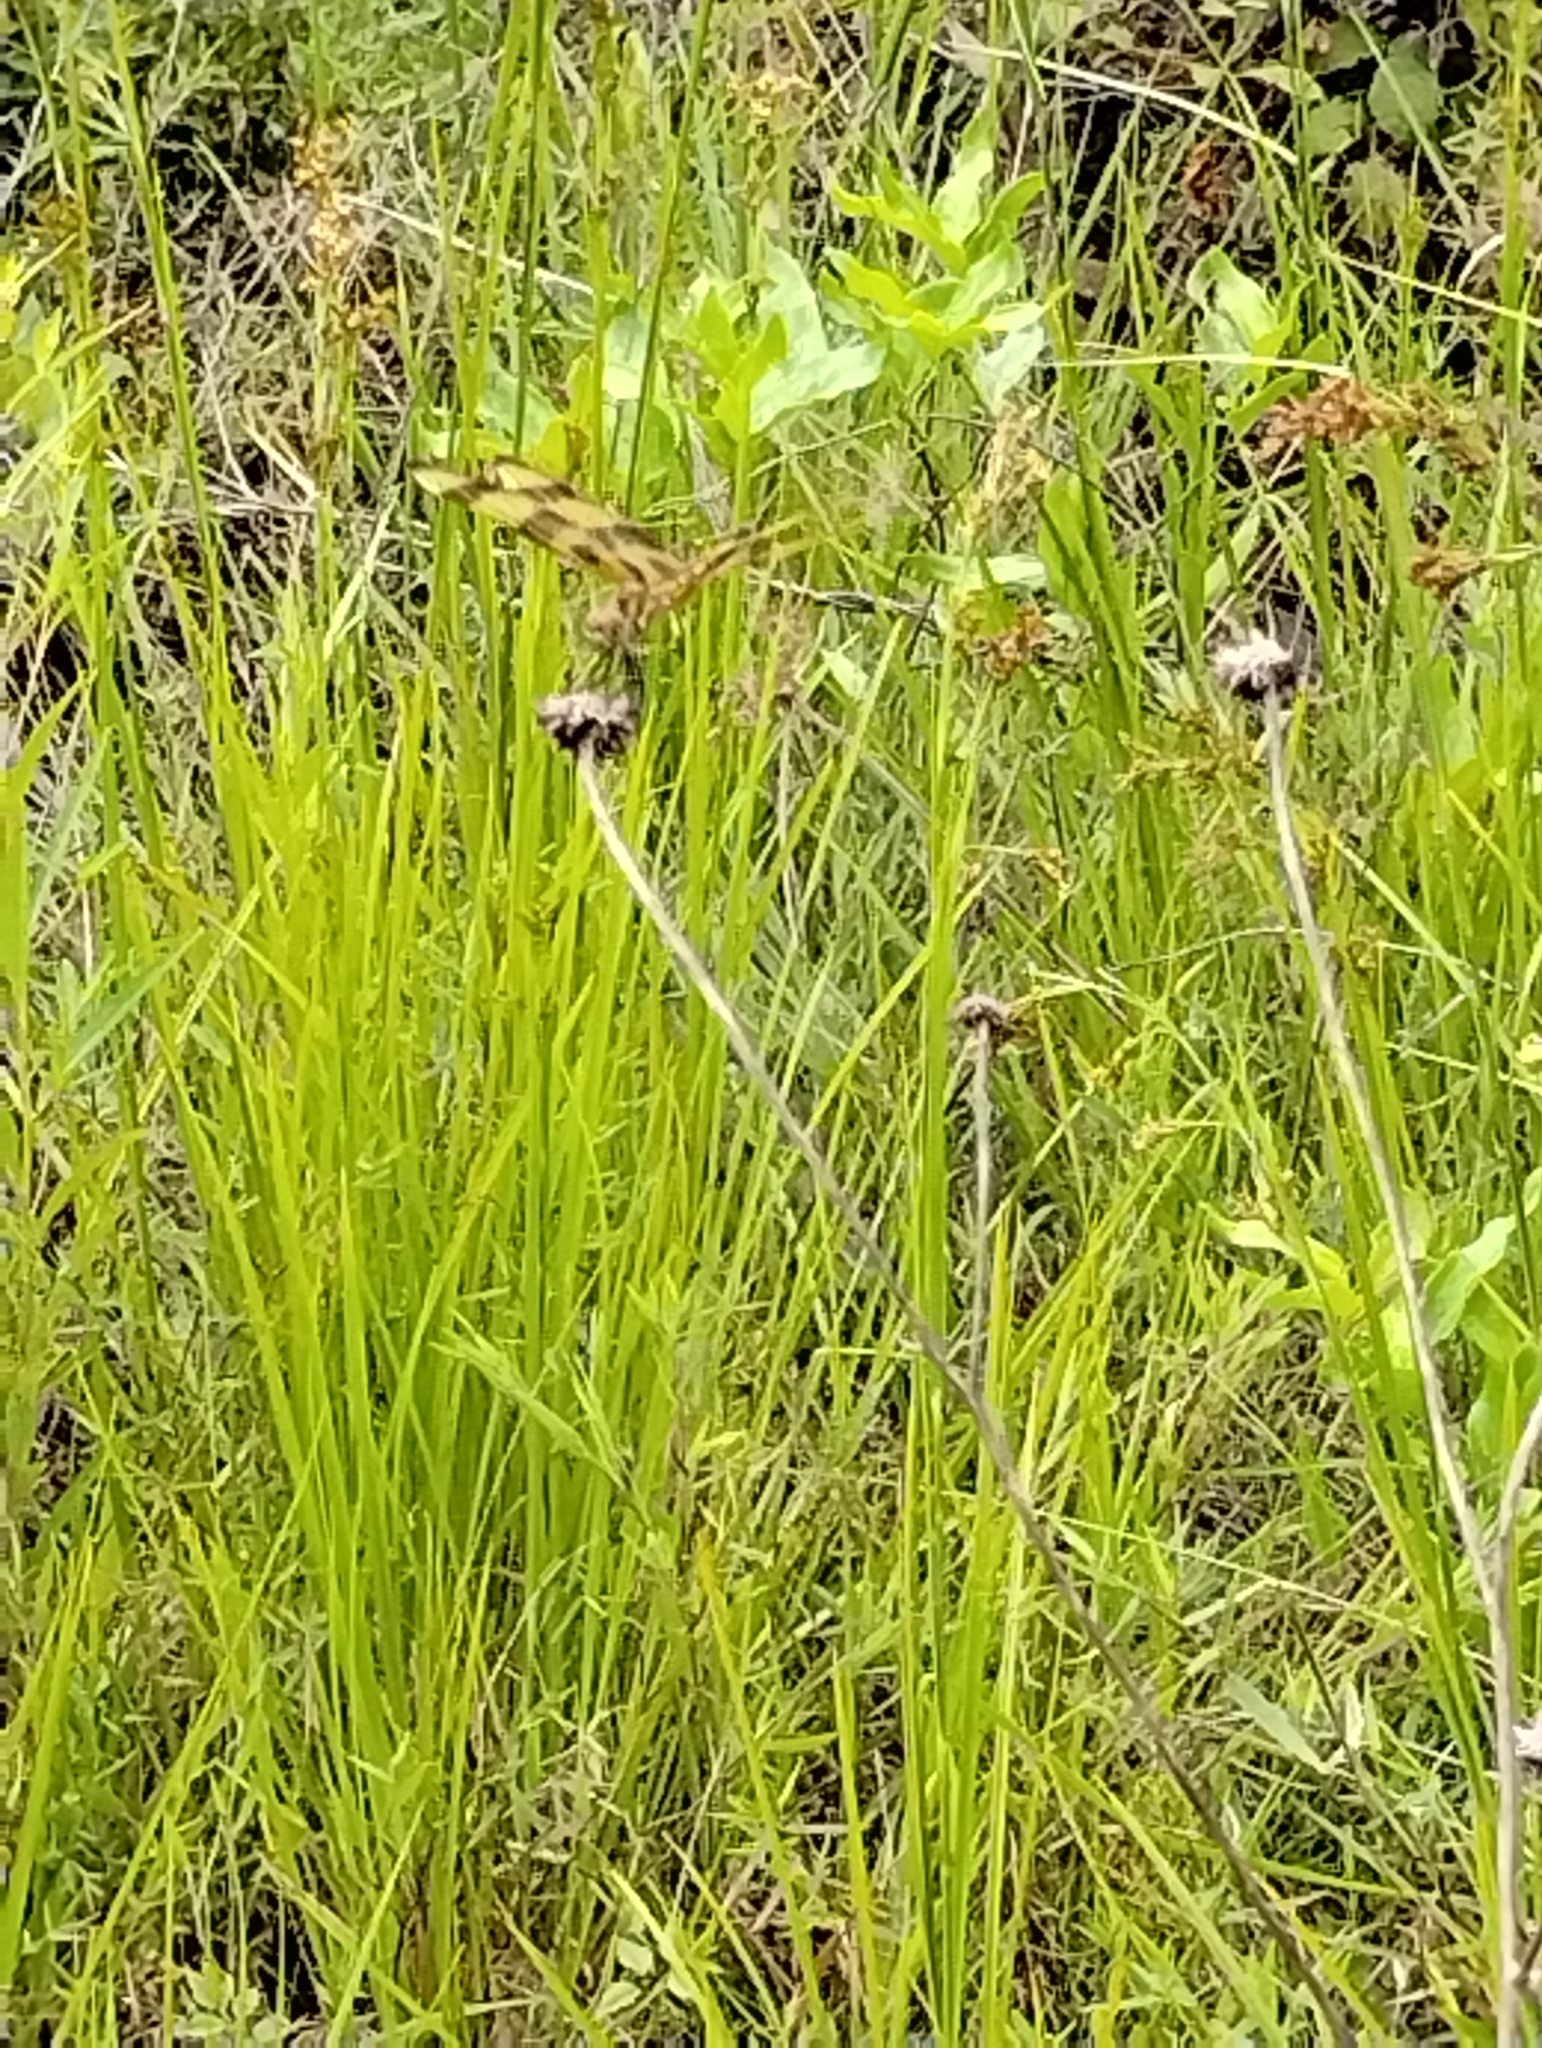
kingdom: Animalia
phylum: Arthropoda
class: Insecta
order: Odonata
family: Libellulidae
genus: Celithemis
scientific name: Celithemis eponina
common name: Halloween pennant
